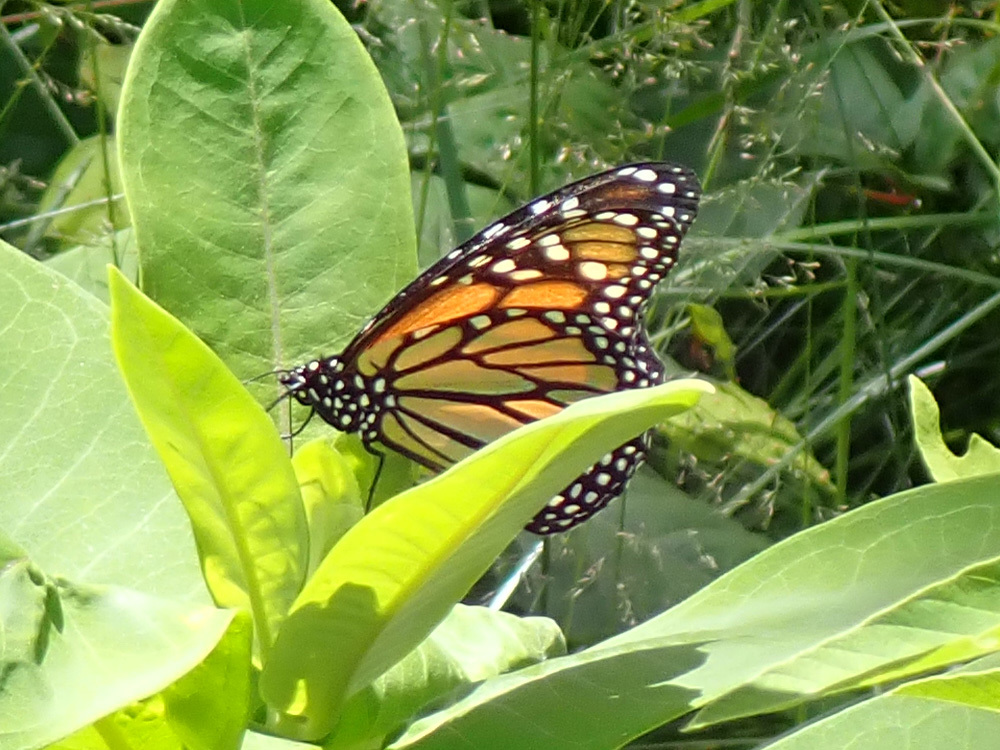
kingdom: Animalia
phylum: Arthropoda
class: Insecta
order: Lepidoptera
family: Nymphalidae
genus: Danaus
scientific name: Danaus plexippus
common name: Monarch
